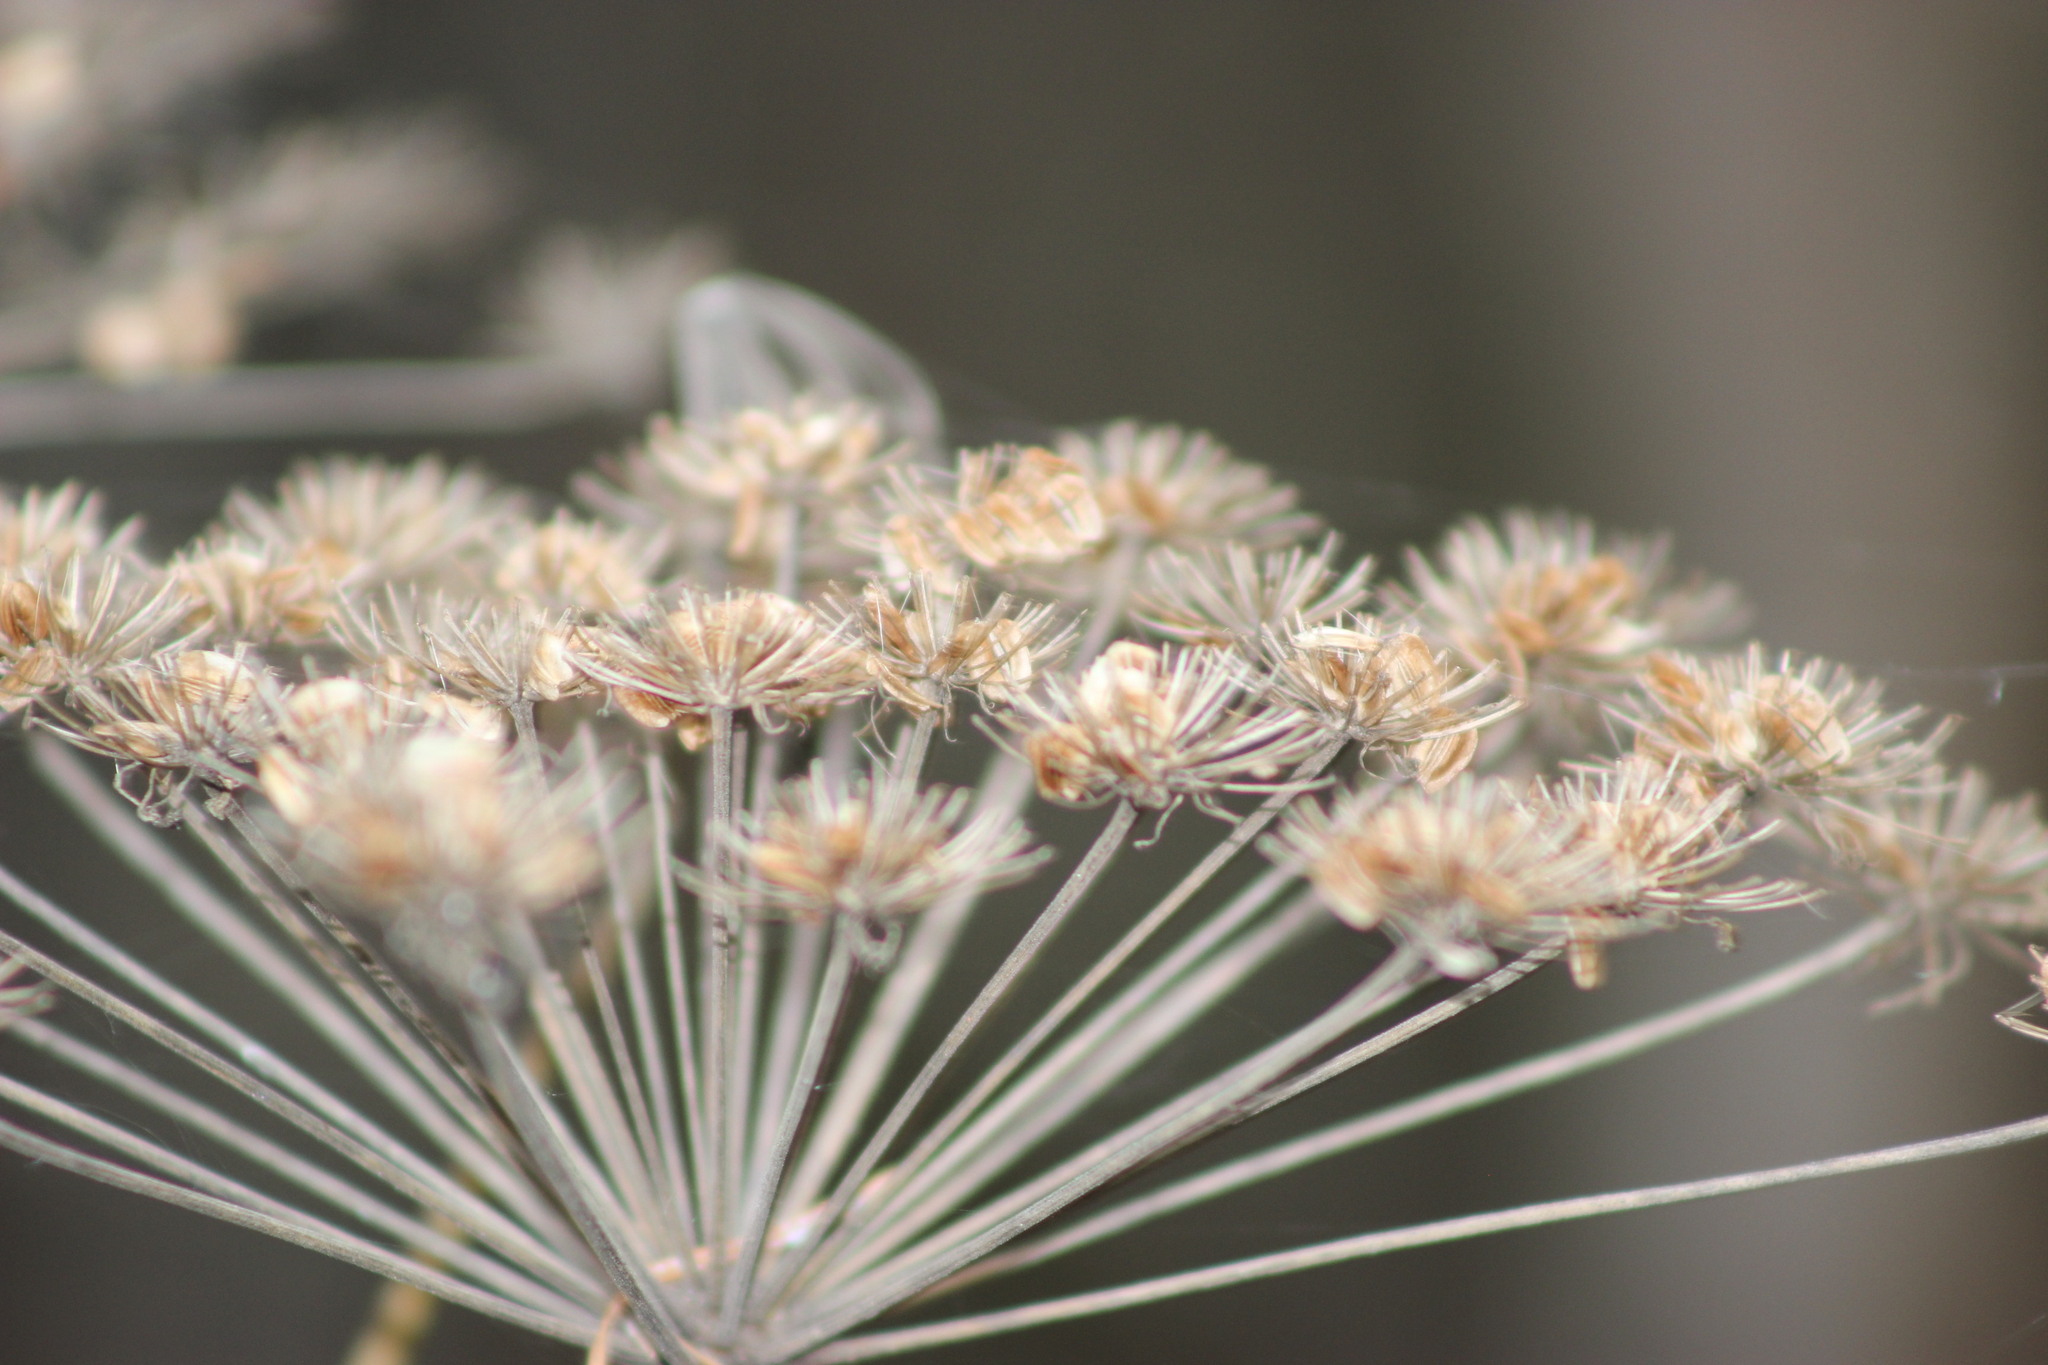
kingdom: Plantae
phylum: Tracheophyta
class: Magnoliopsida
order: Apiales
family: Apiaceae
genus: Angelica
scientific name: Angelica sylvestris
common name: Wild angelica
